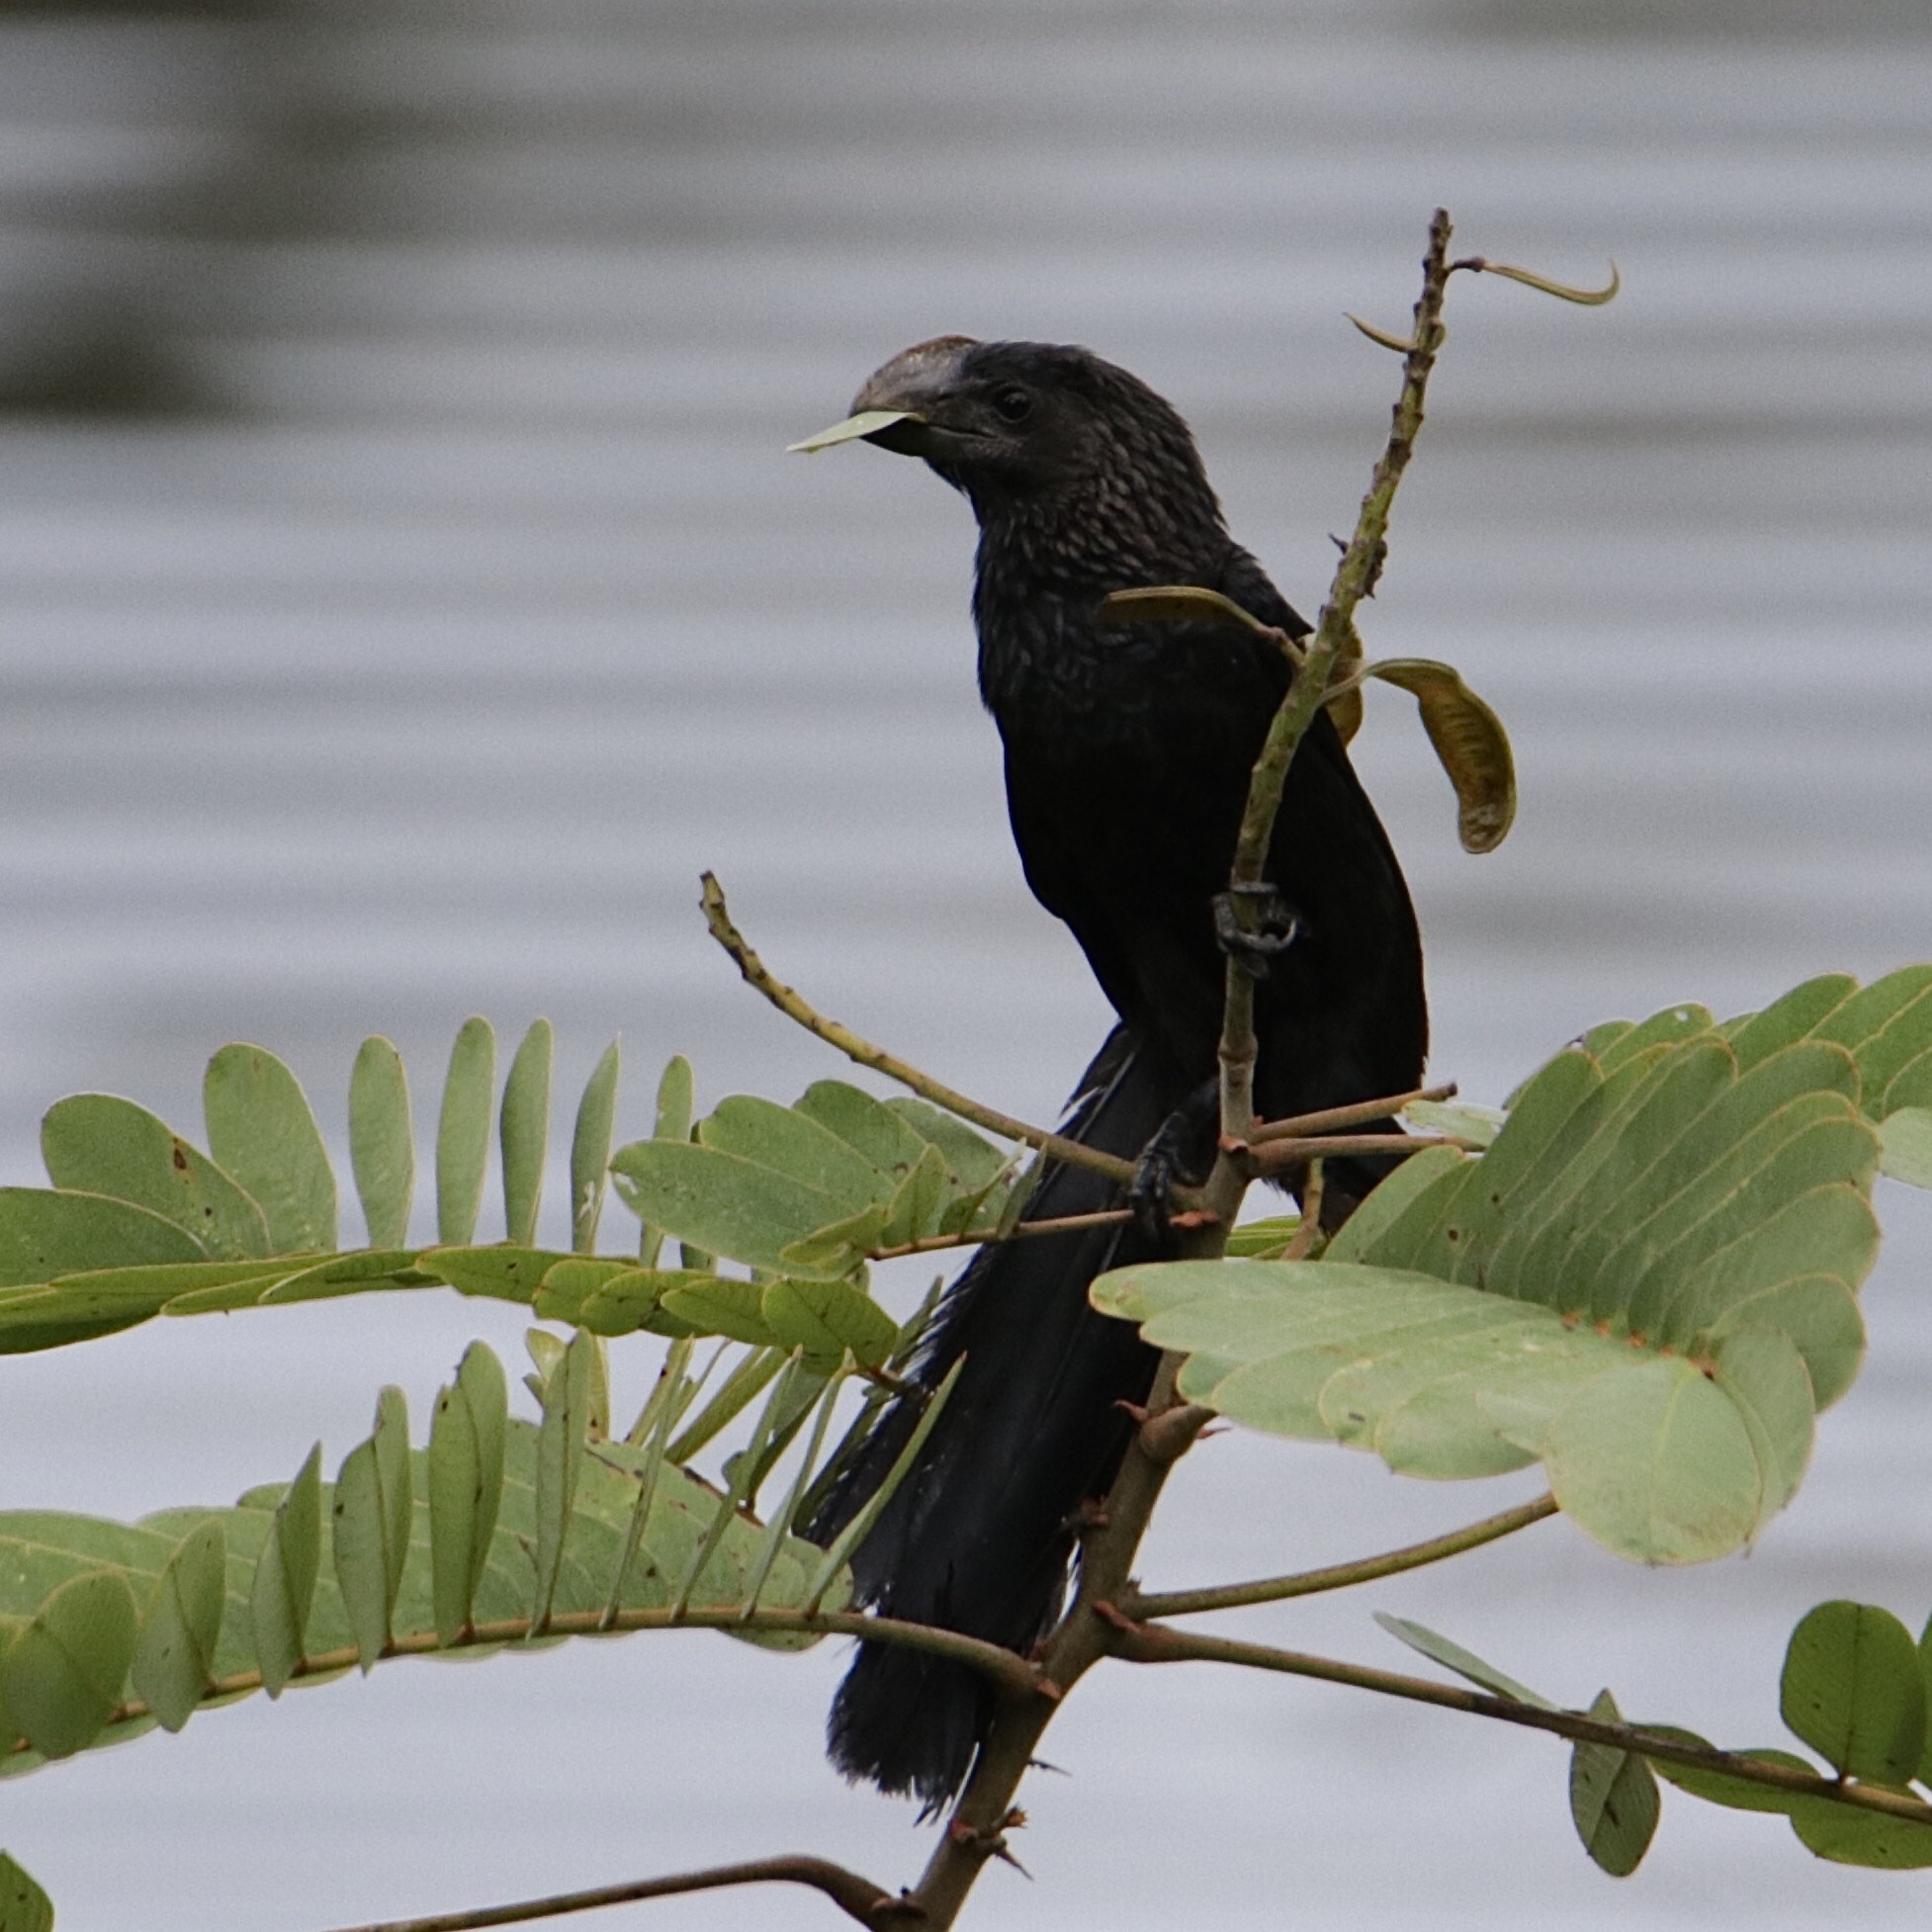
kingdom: Animalia
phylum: Chordata
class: Aves
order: Cuculiformes
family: Cuculidae
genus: Crotophaga
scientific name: Crotophaga ani
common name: Smooth-billed ani
